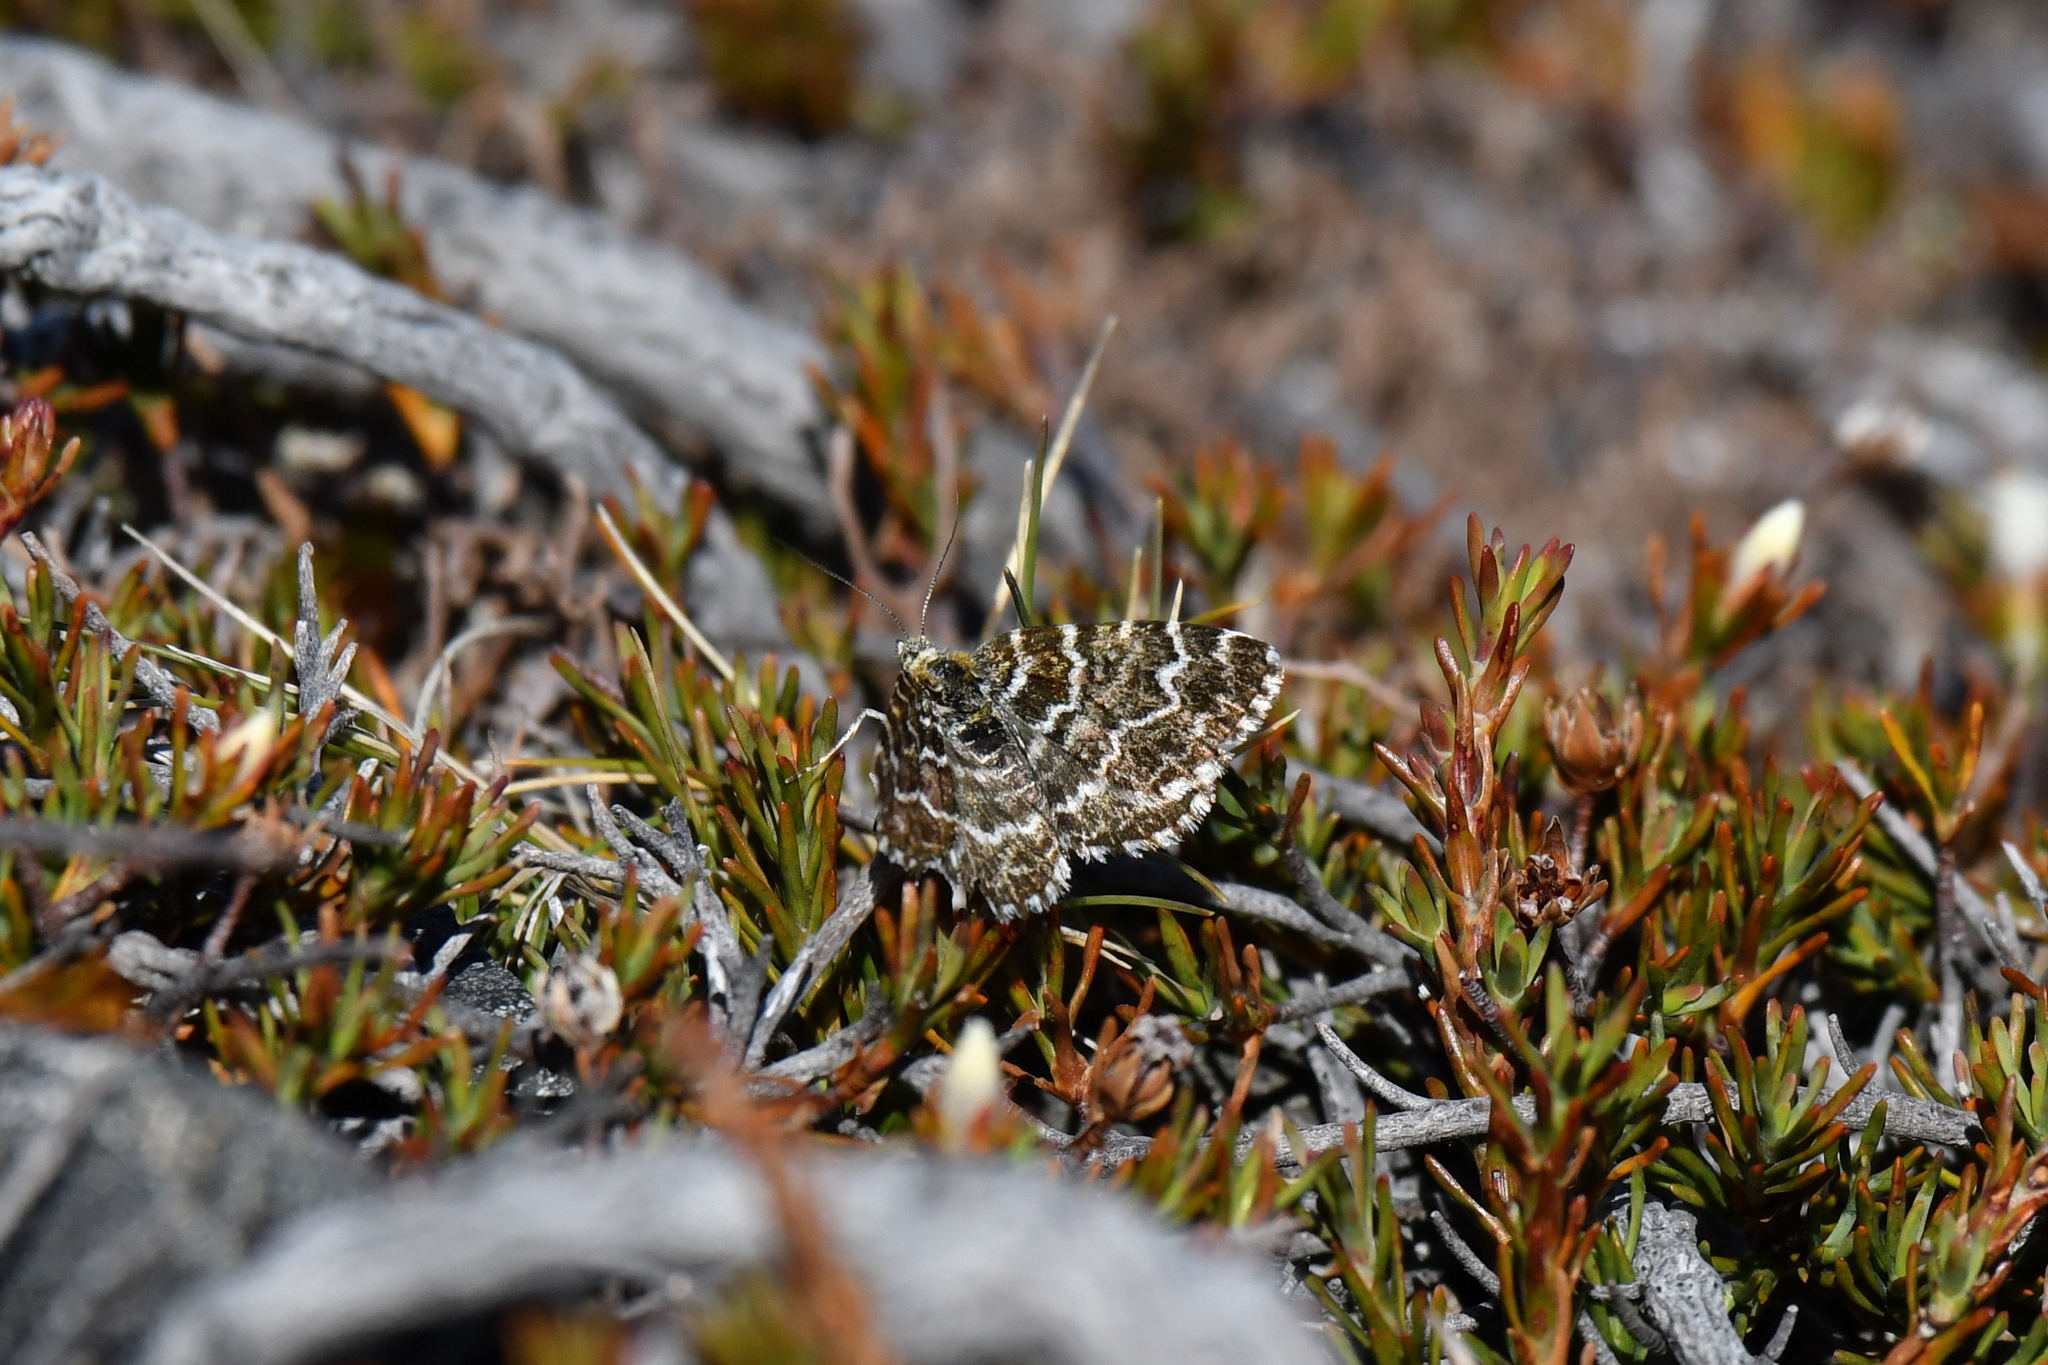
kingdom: Animalia
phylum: Arthropoda
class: Insecta
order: Lepidoptera
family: Geometridae
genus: Notoreas
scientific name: Notoreas ischnocyma
